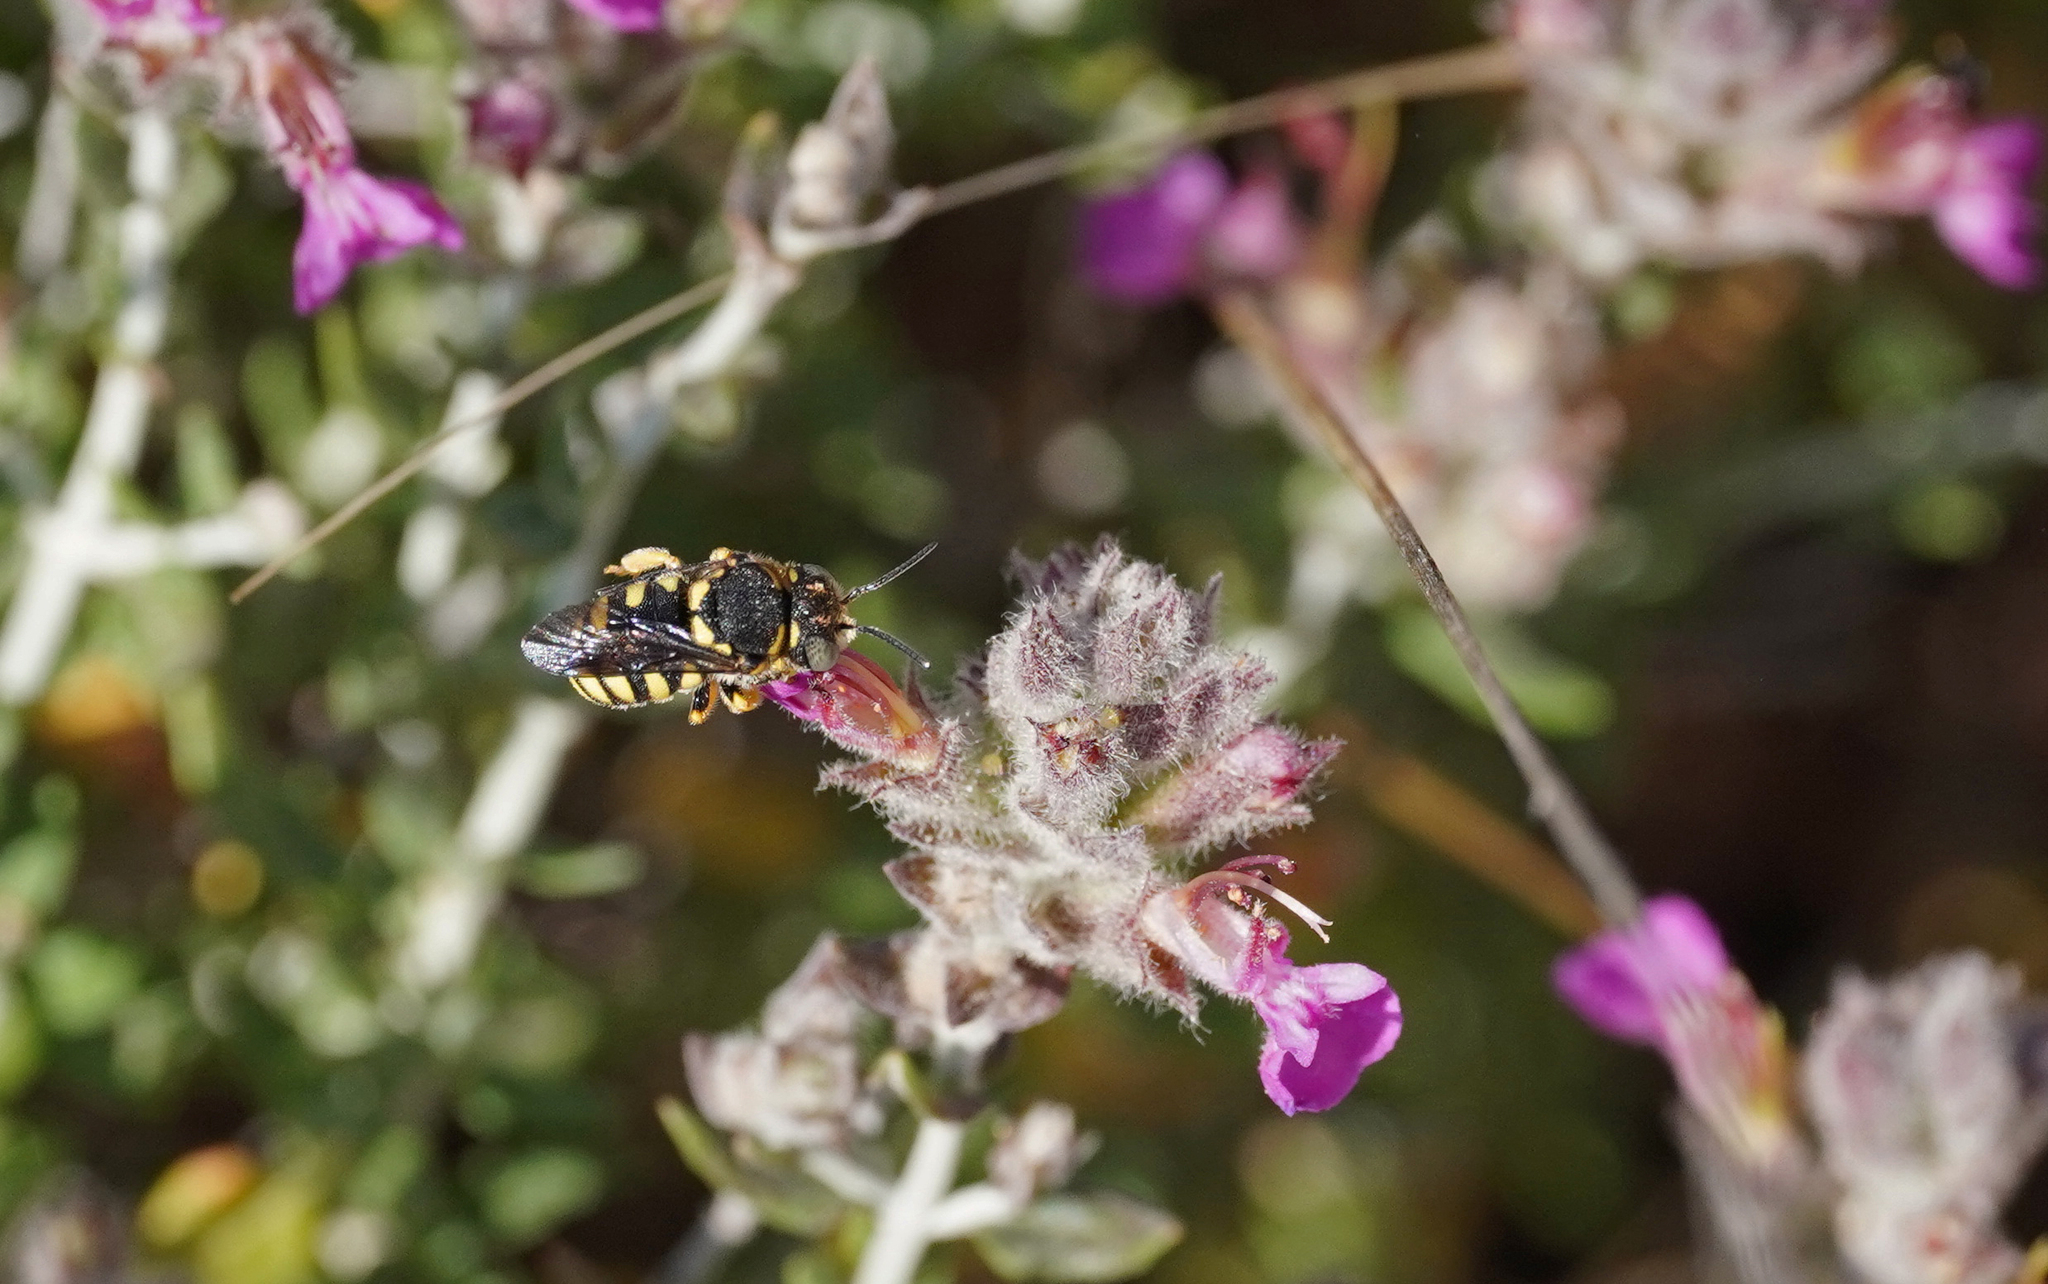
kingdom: Animalia
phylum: Arthropoda
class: Insecta
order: Hymenoptera
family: Megachilidae
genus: Anthidiellum
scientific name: Anthidiellum strigatum
